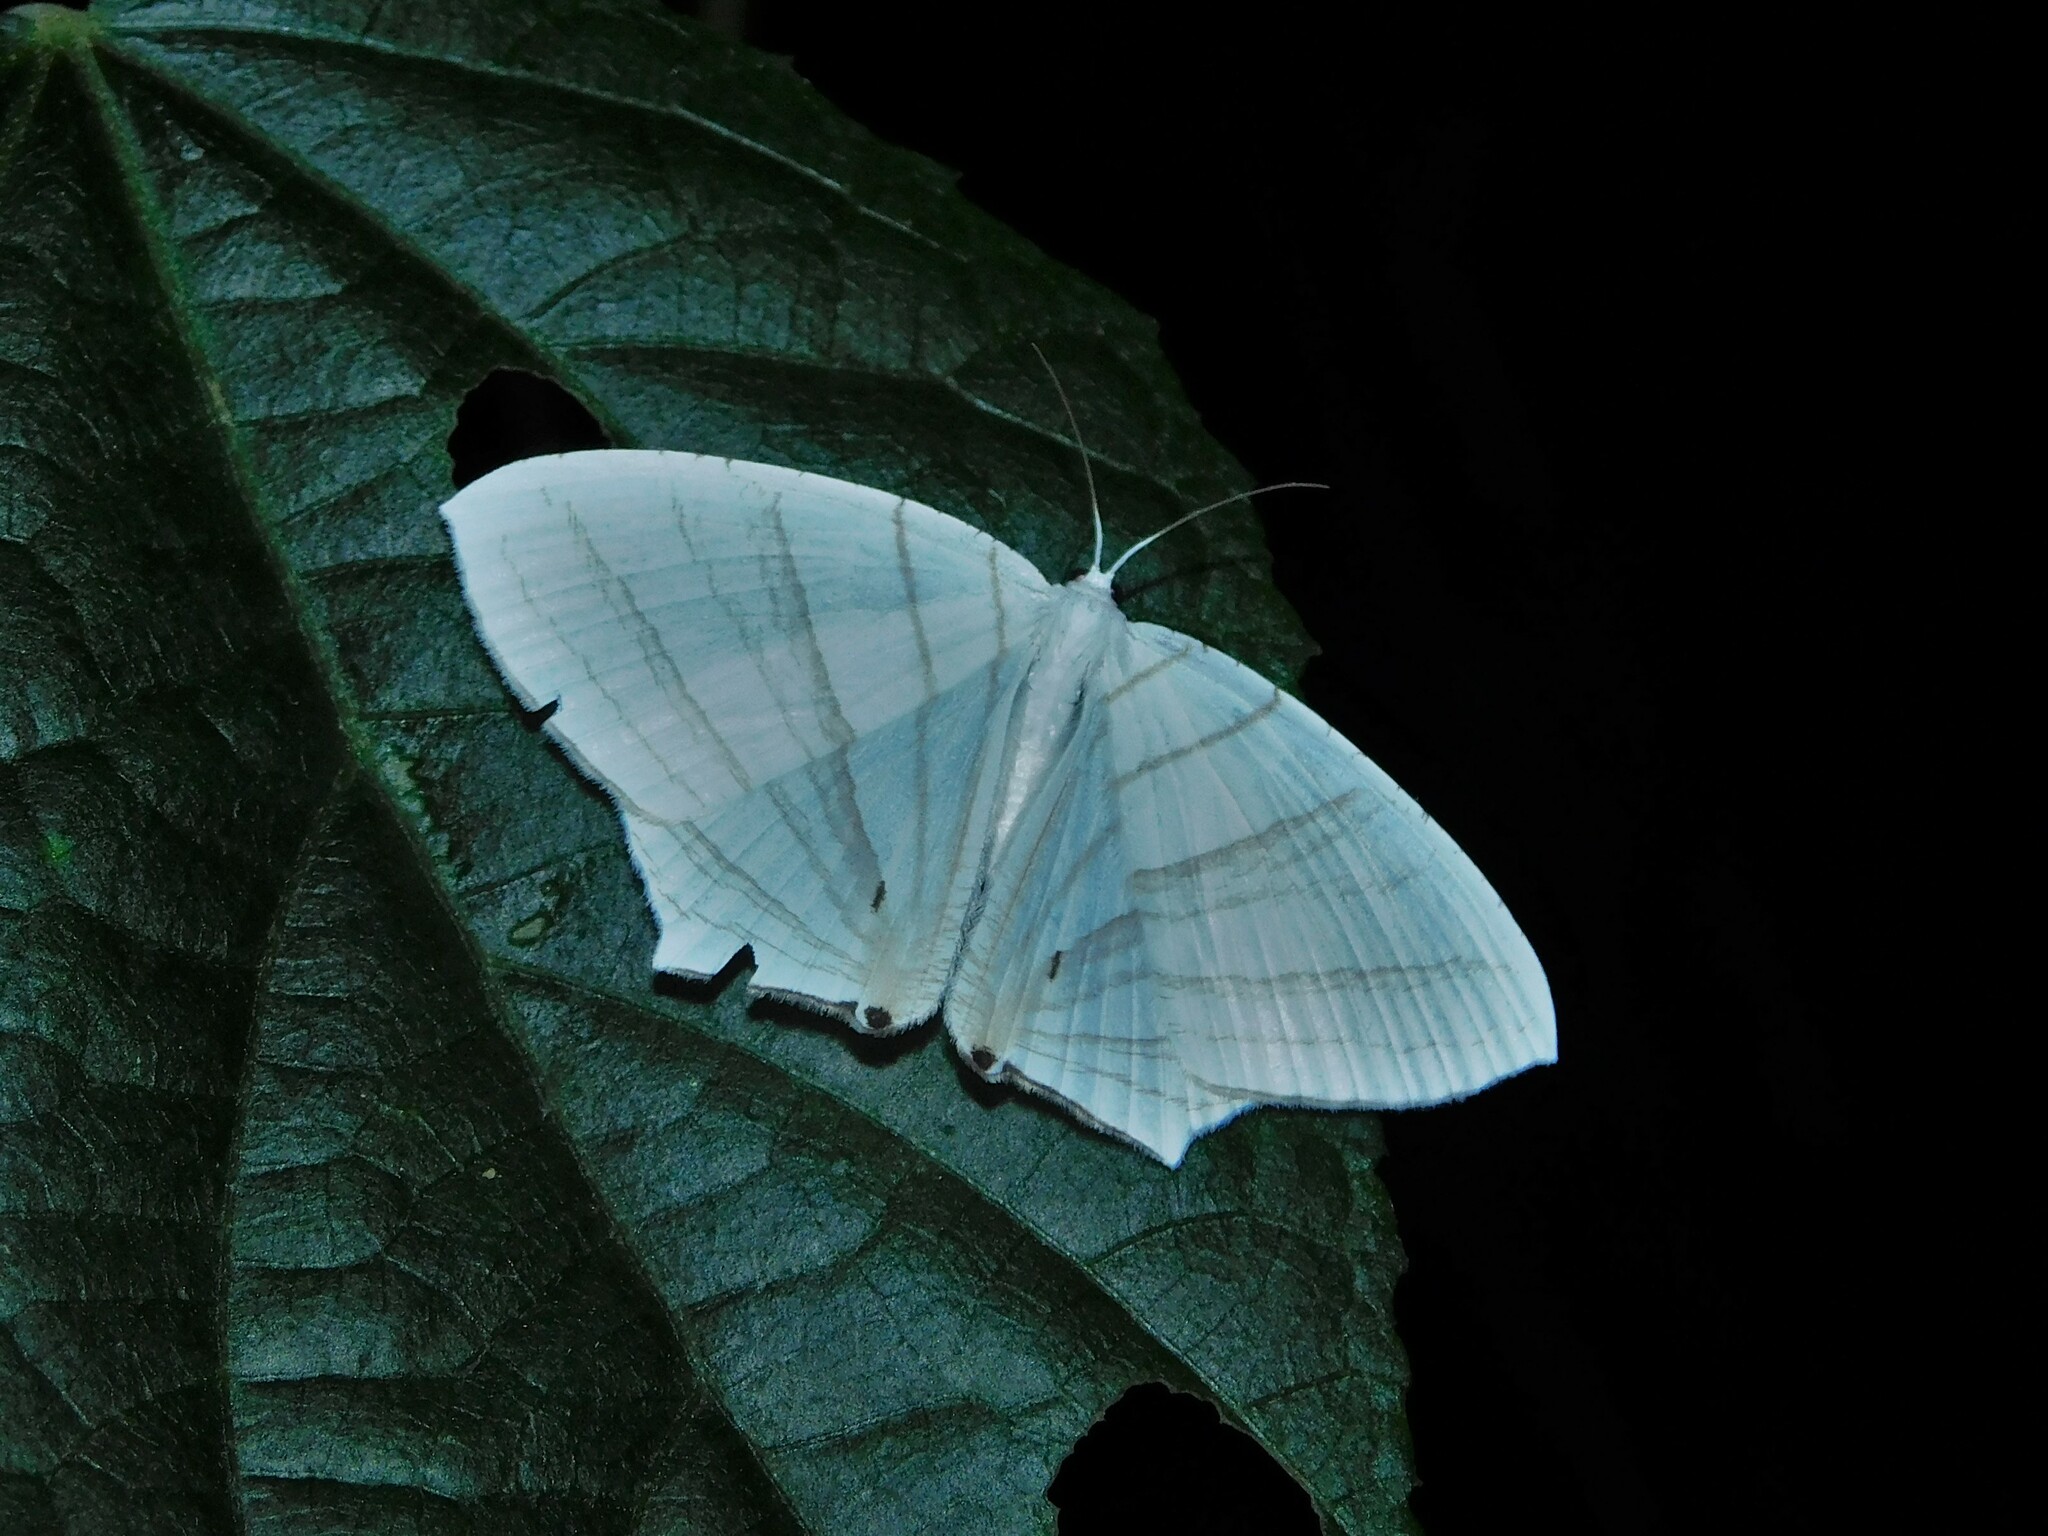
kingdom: Animalia
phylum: Arthropoda
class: Insecta
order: Lepidoptera
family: Uraniidae
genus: Dissoprumna
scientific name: Dissoprumna erycinaria
